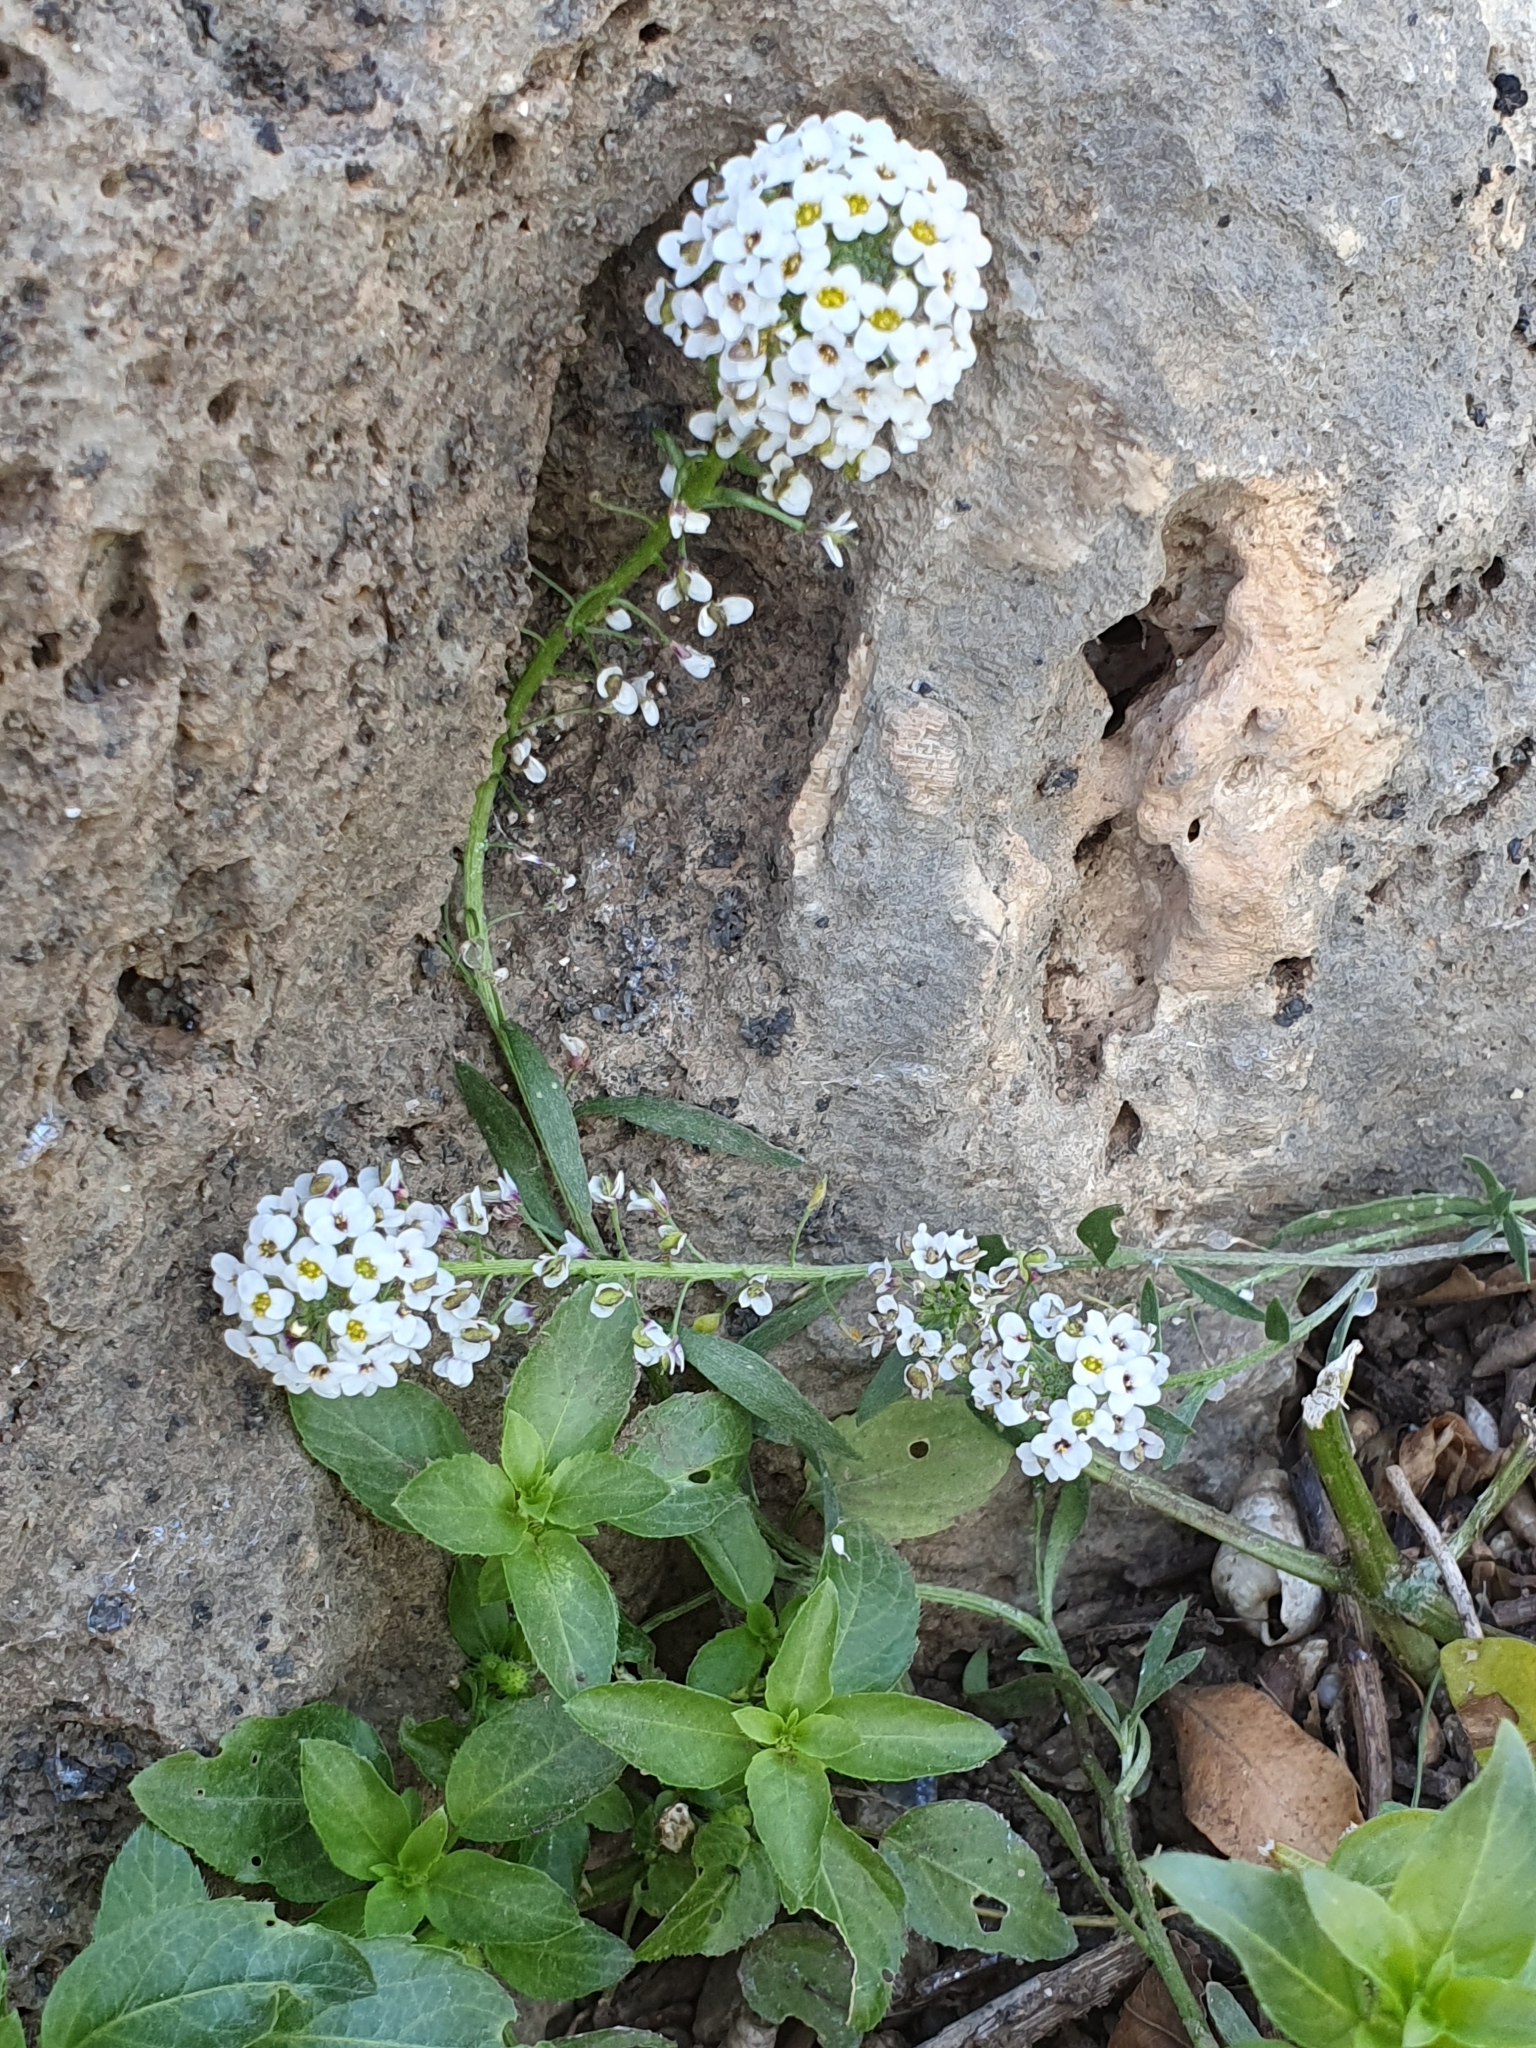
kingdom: Plantae
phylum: Tracheophyta
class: Magnoliopsida
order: Brassicales
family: Brassicaceae
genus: Lobularia
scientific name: Lobularia maritima
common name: Sweet alison
